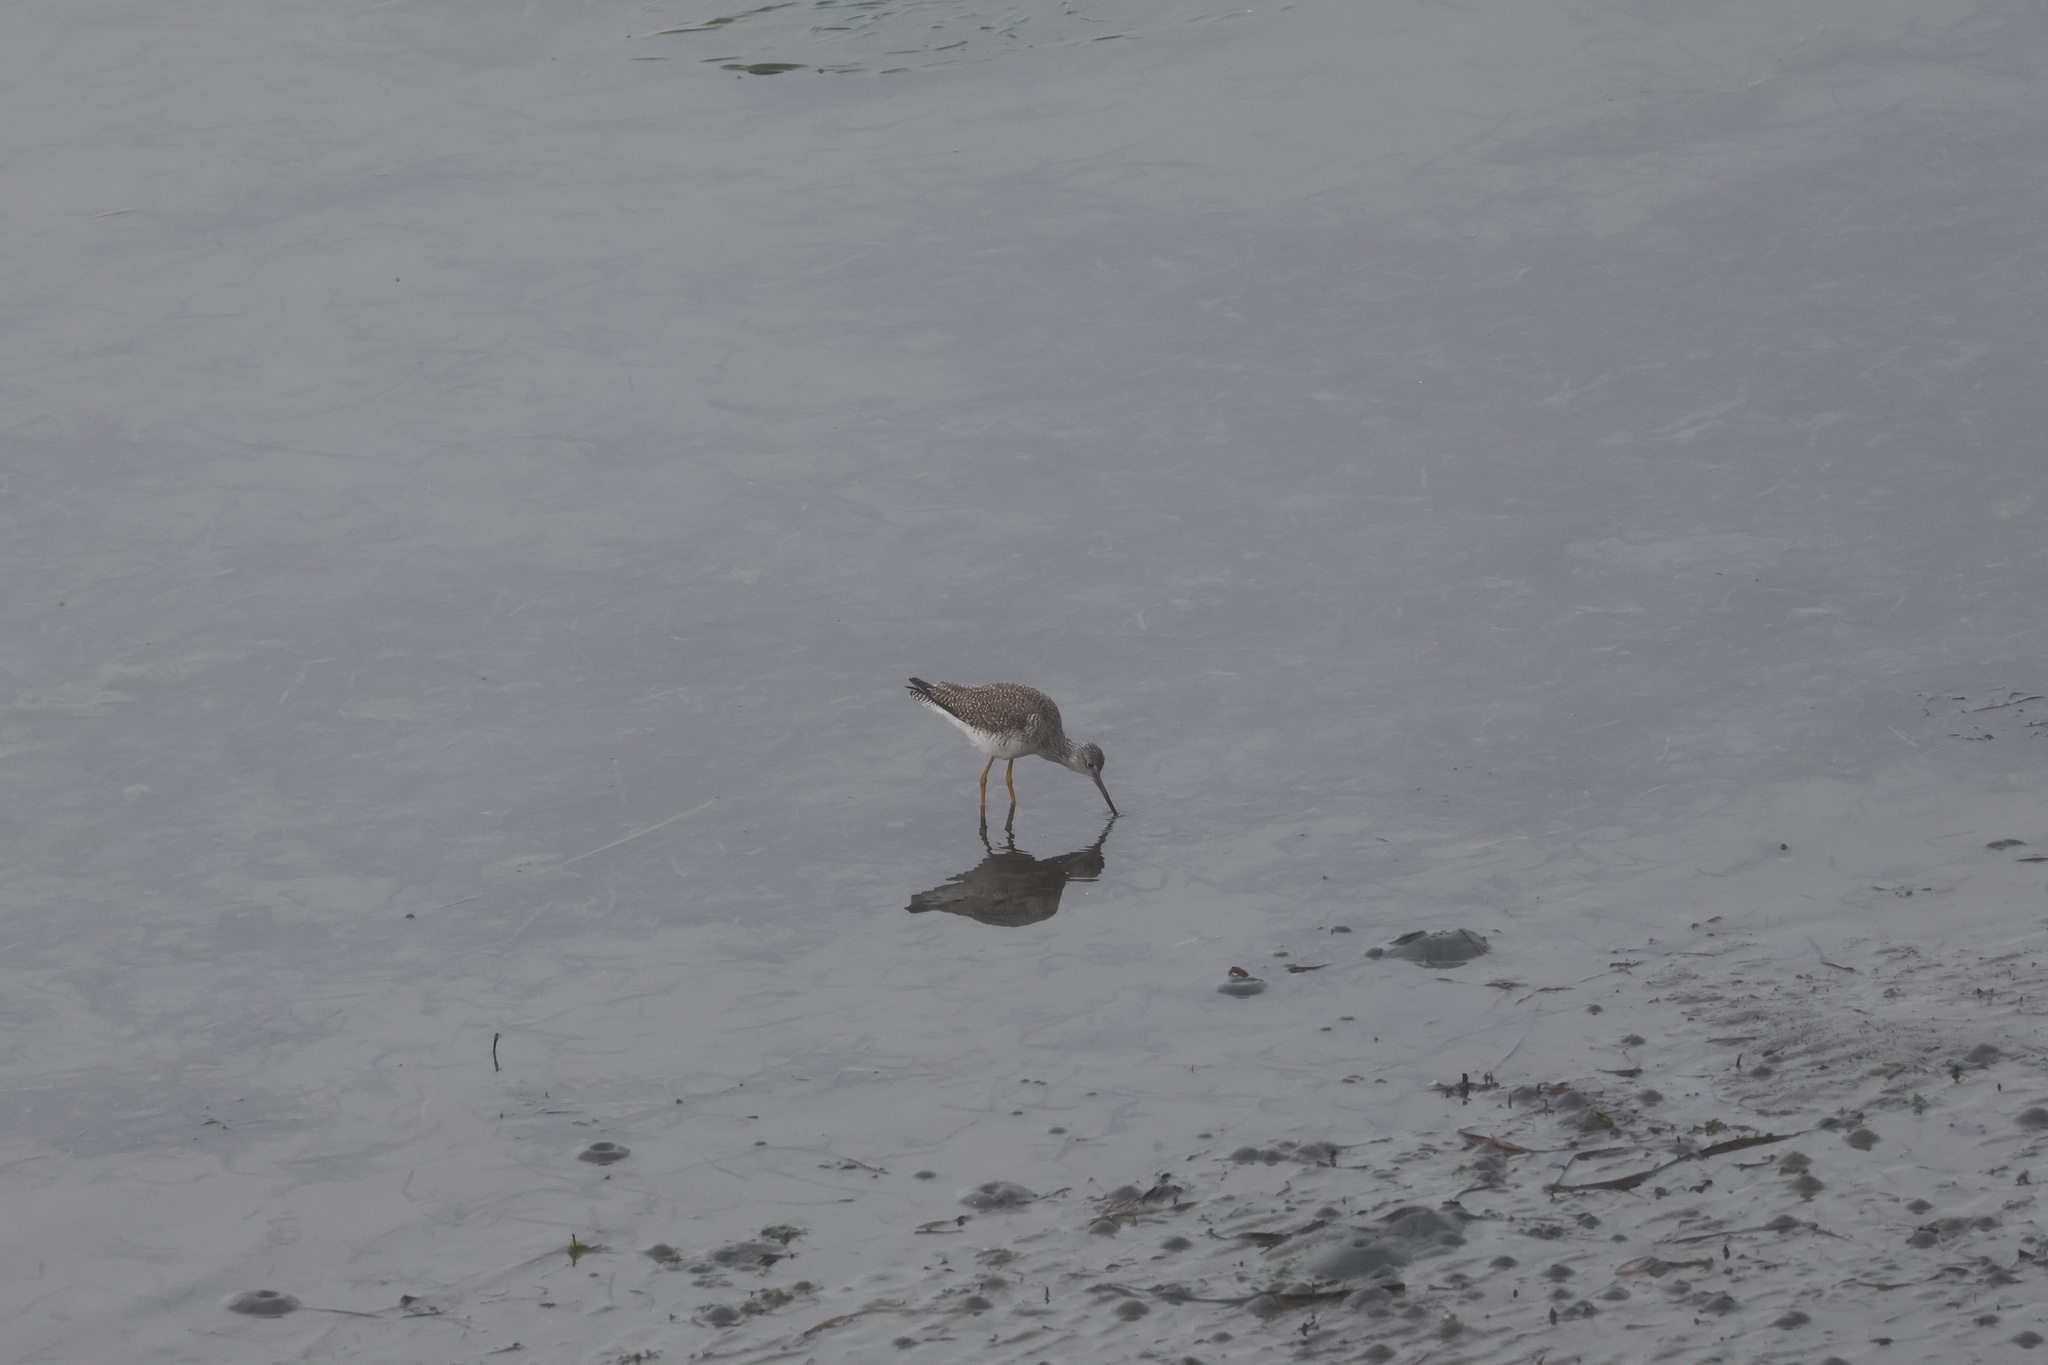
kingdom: Animalia
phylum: Chordata
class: Aves
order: Charadriiformes
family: Scolopacidae
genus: Tringa
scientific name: Tringa melanoleuca
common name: Greater yellowlegs
